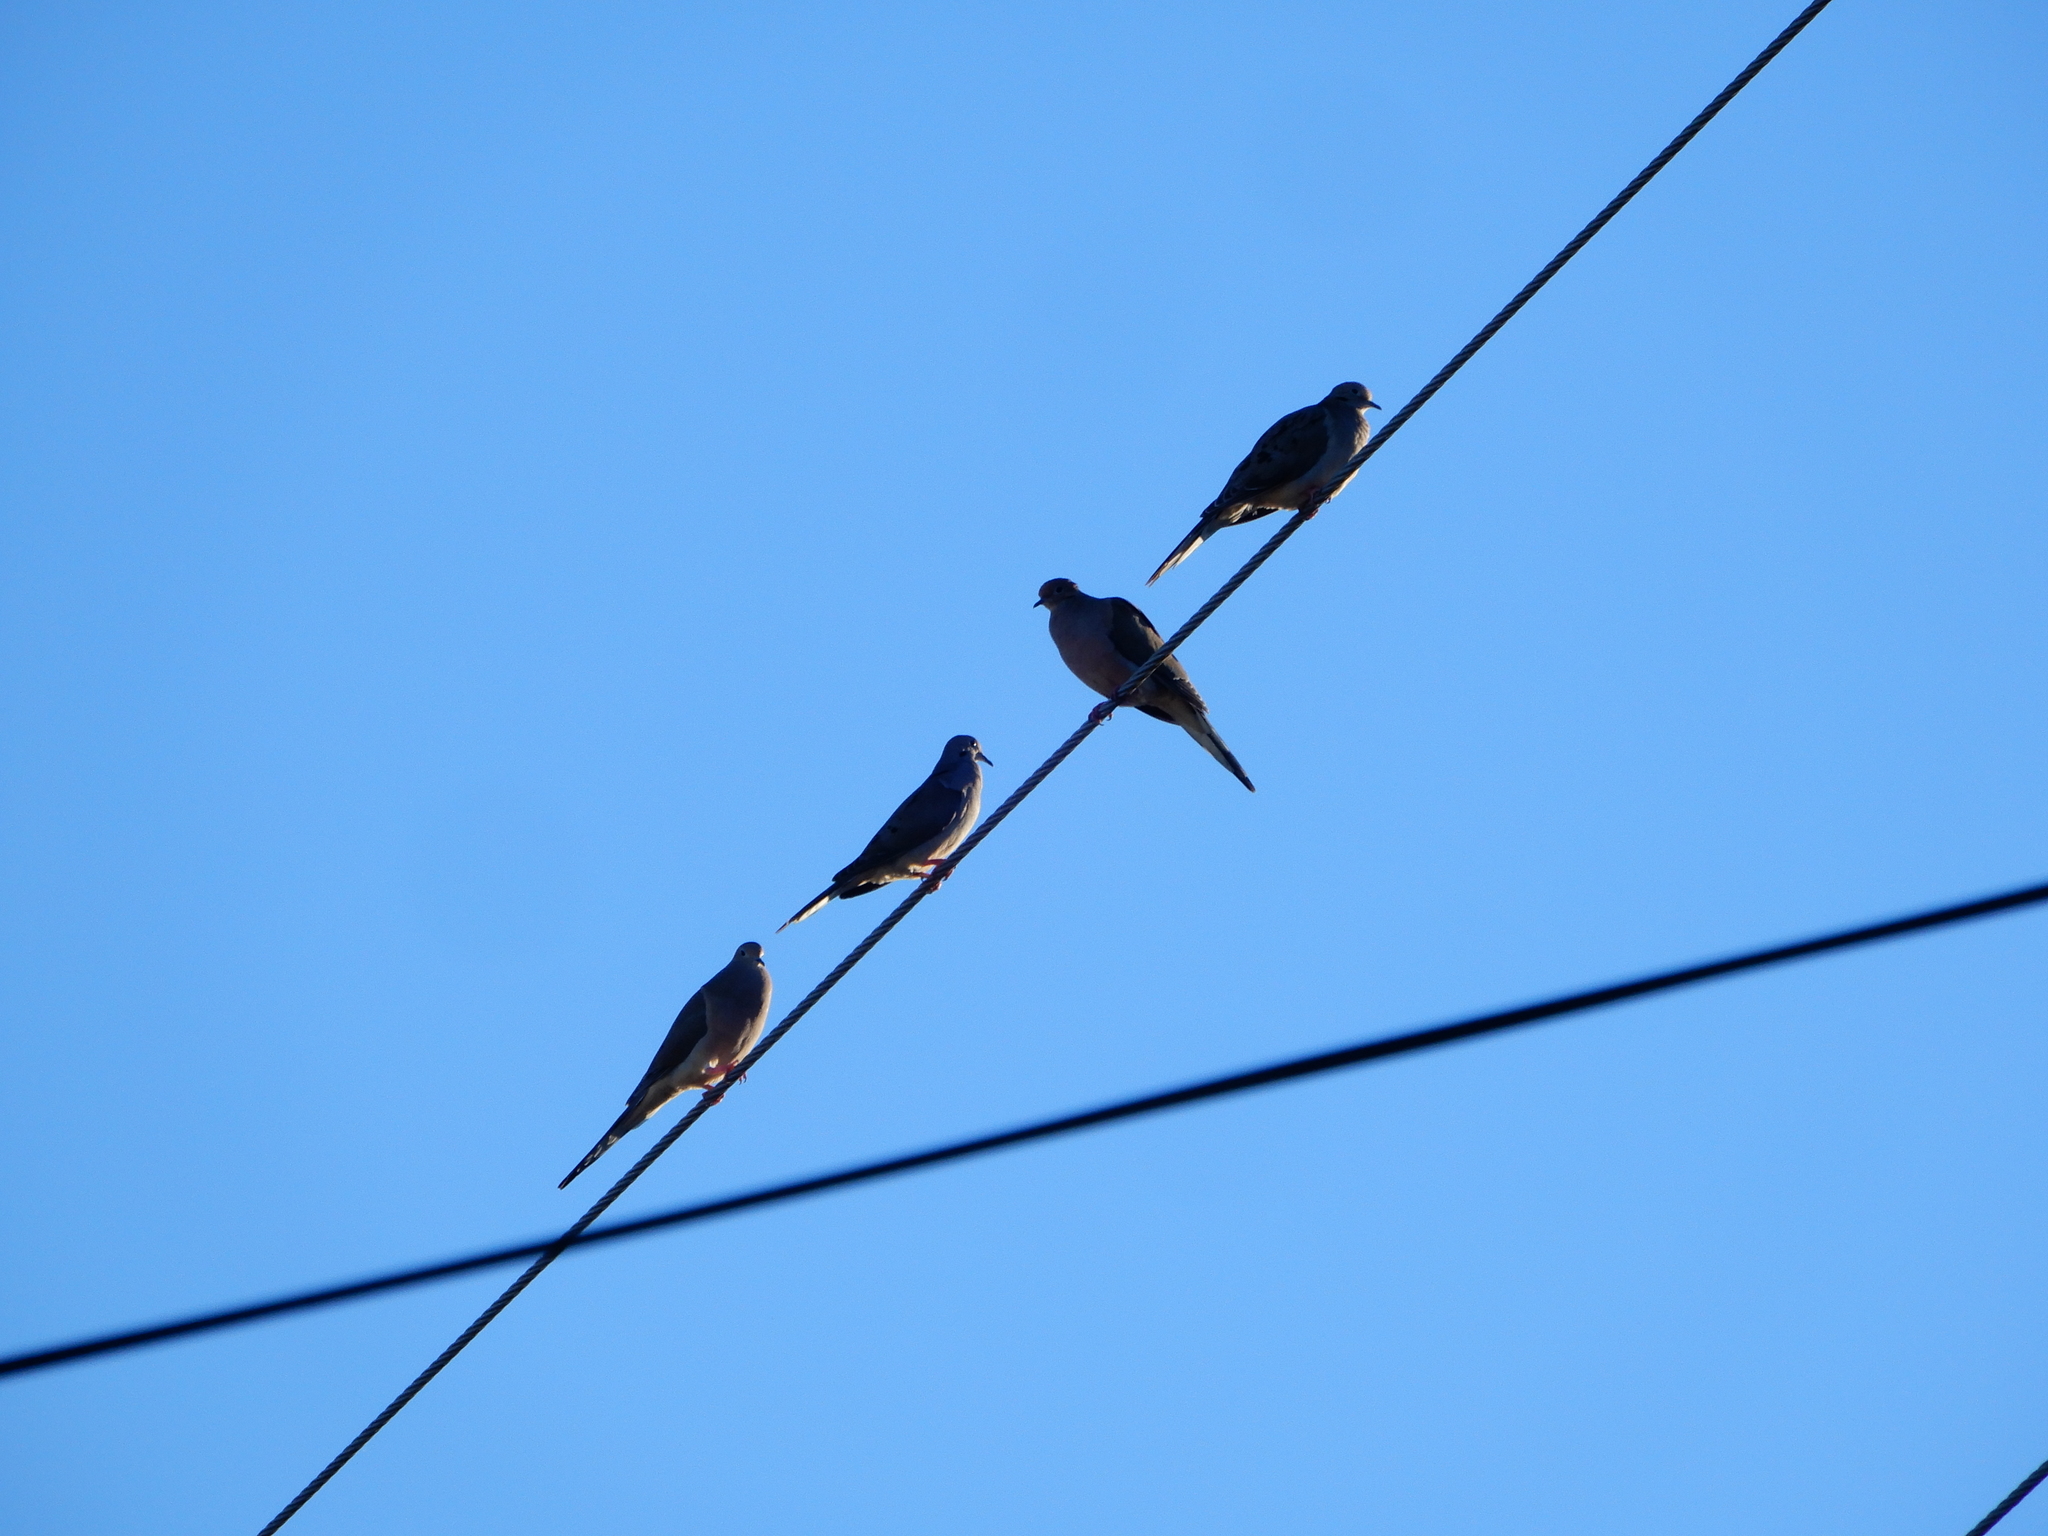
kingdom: Animalia
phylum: Chordata
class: Aves
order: Columbiformes
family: Columbidae
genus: Zenaida
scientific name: Zenaida macroura
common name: Mourning dove
